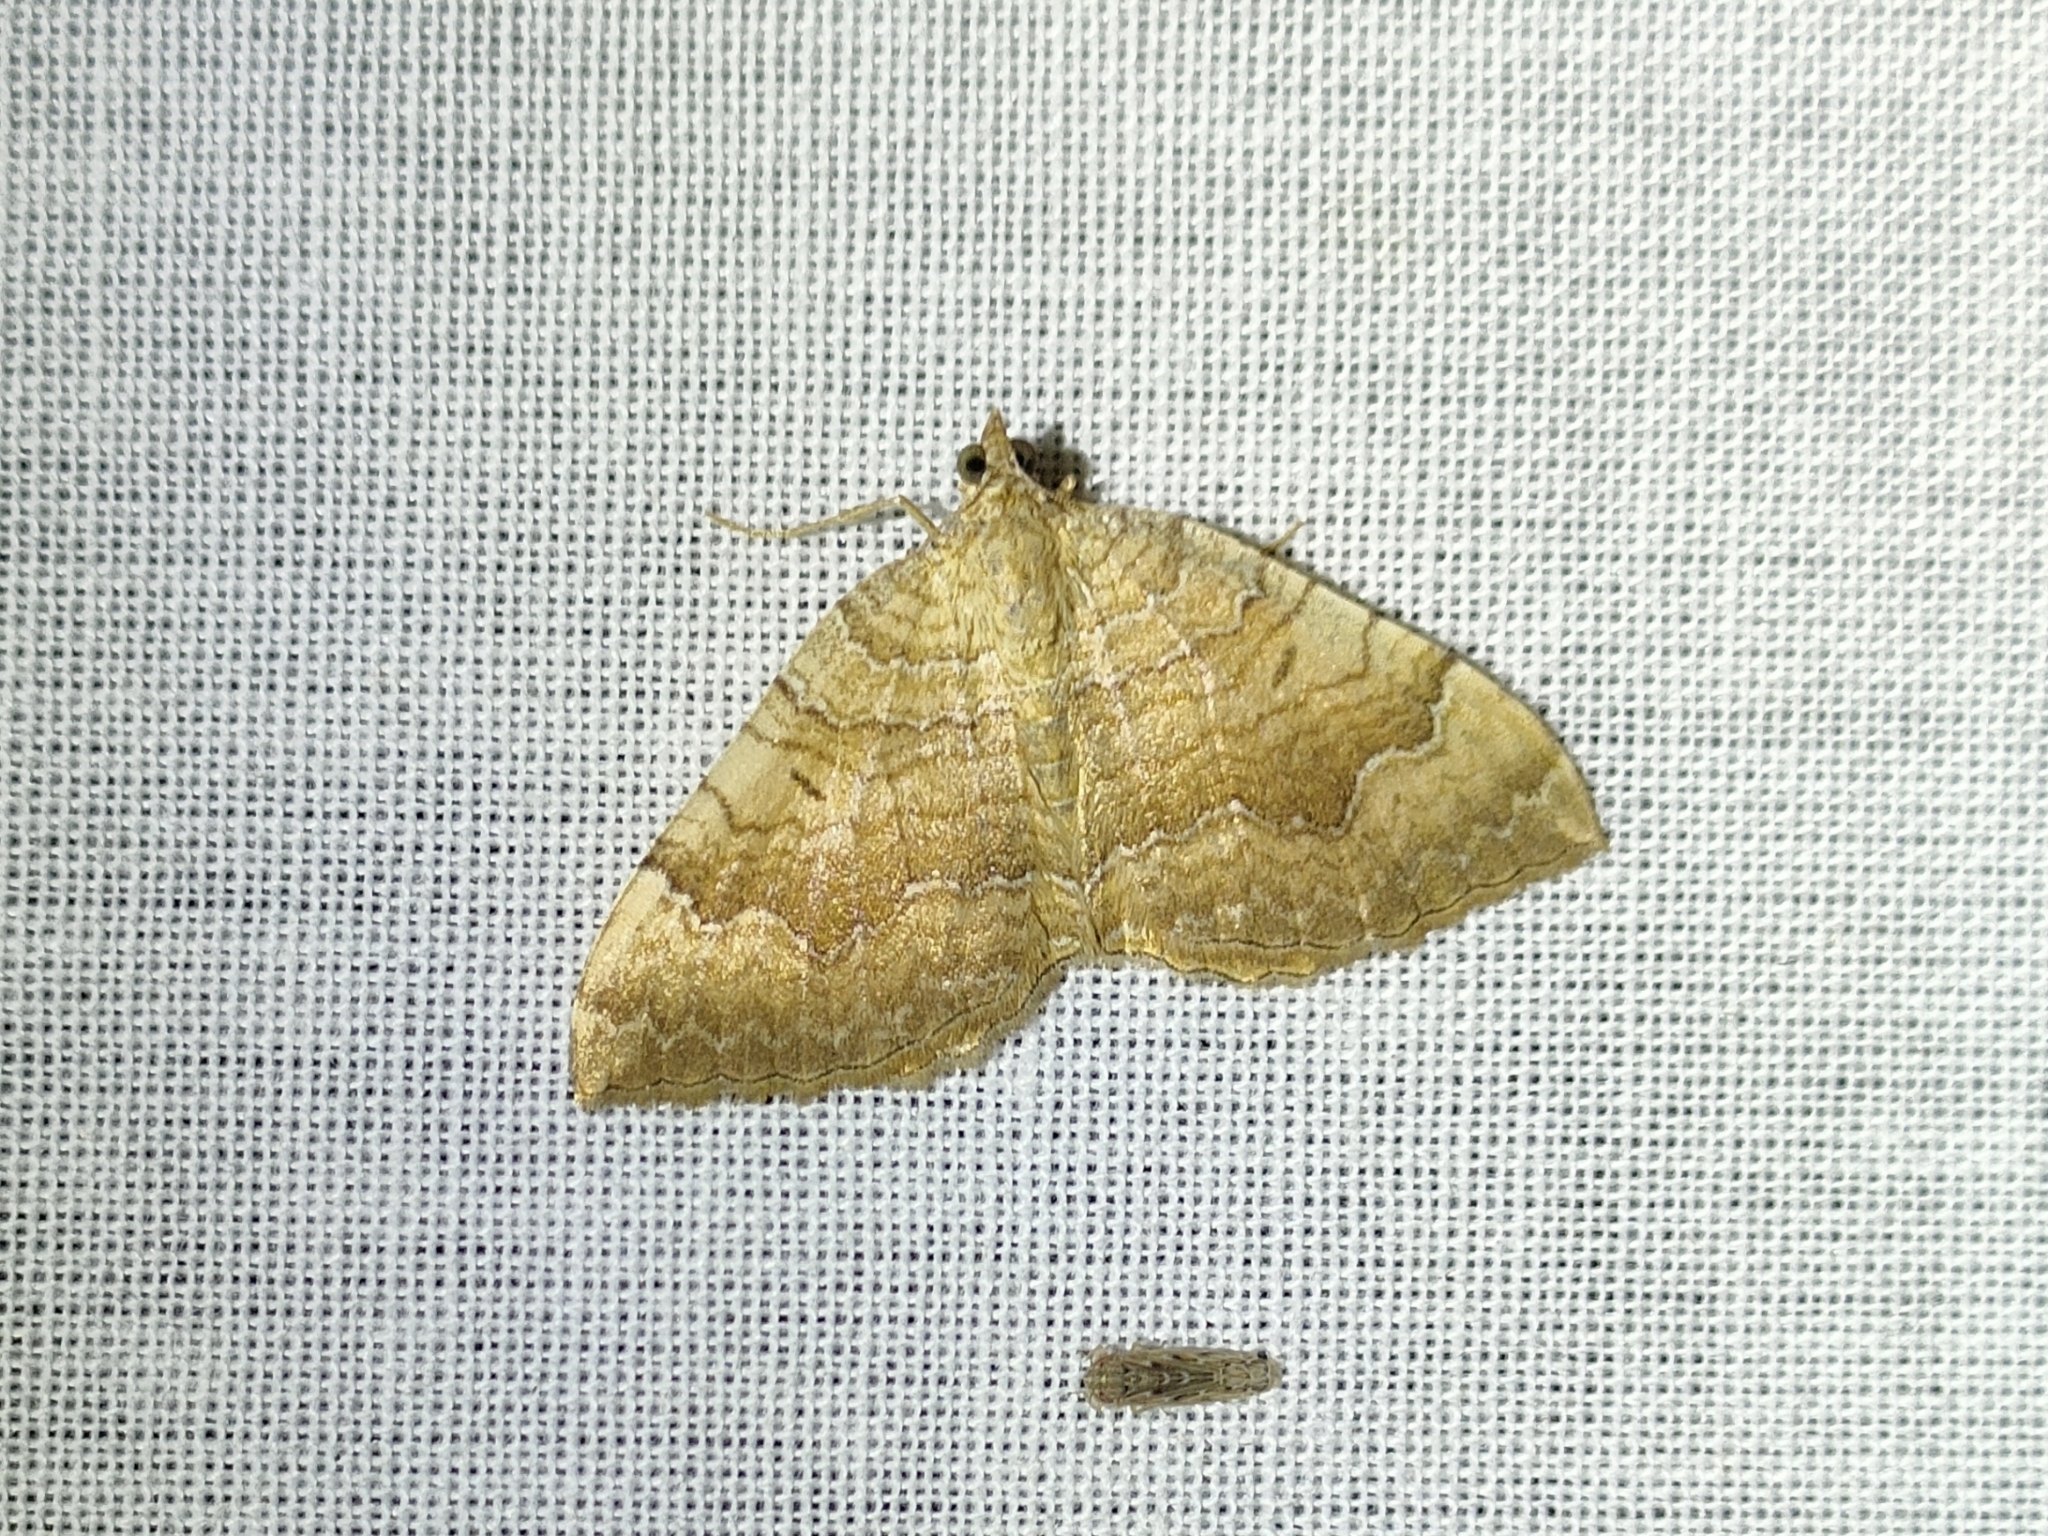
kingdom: Animalia
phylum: Arthropoda
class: Insecta
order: Lepidoptera
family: Geometridae
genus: Camptogramma
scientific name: Camptogramma bilineata
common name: Yellow shell
